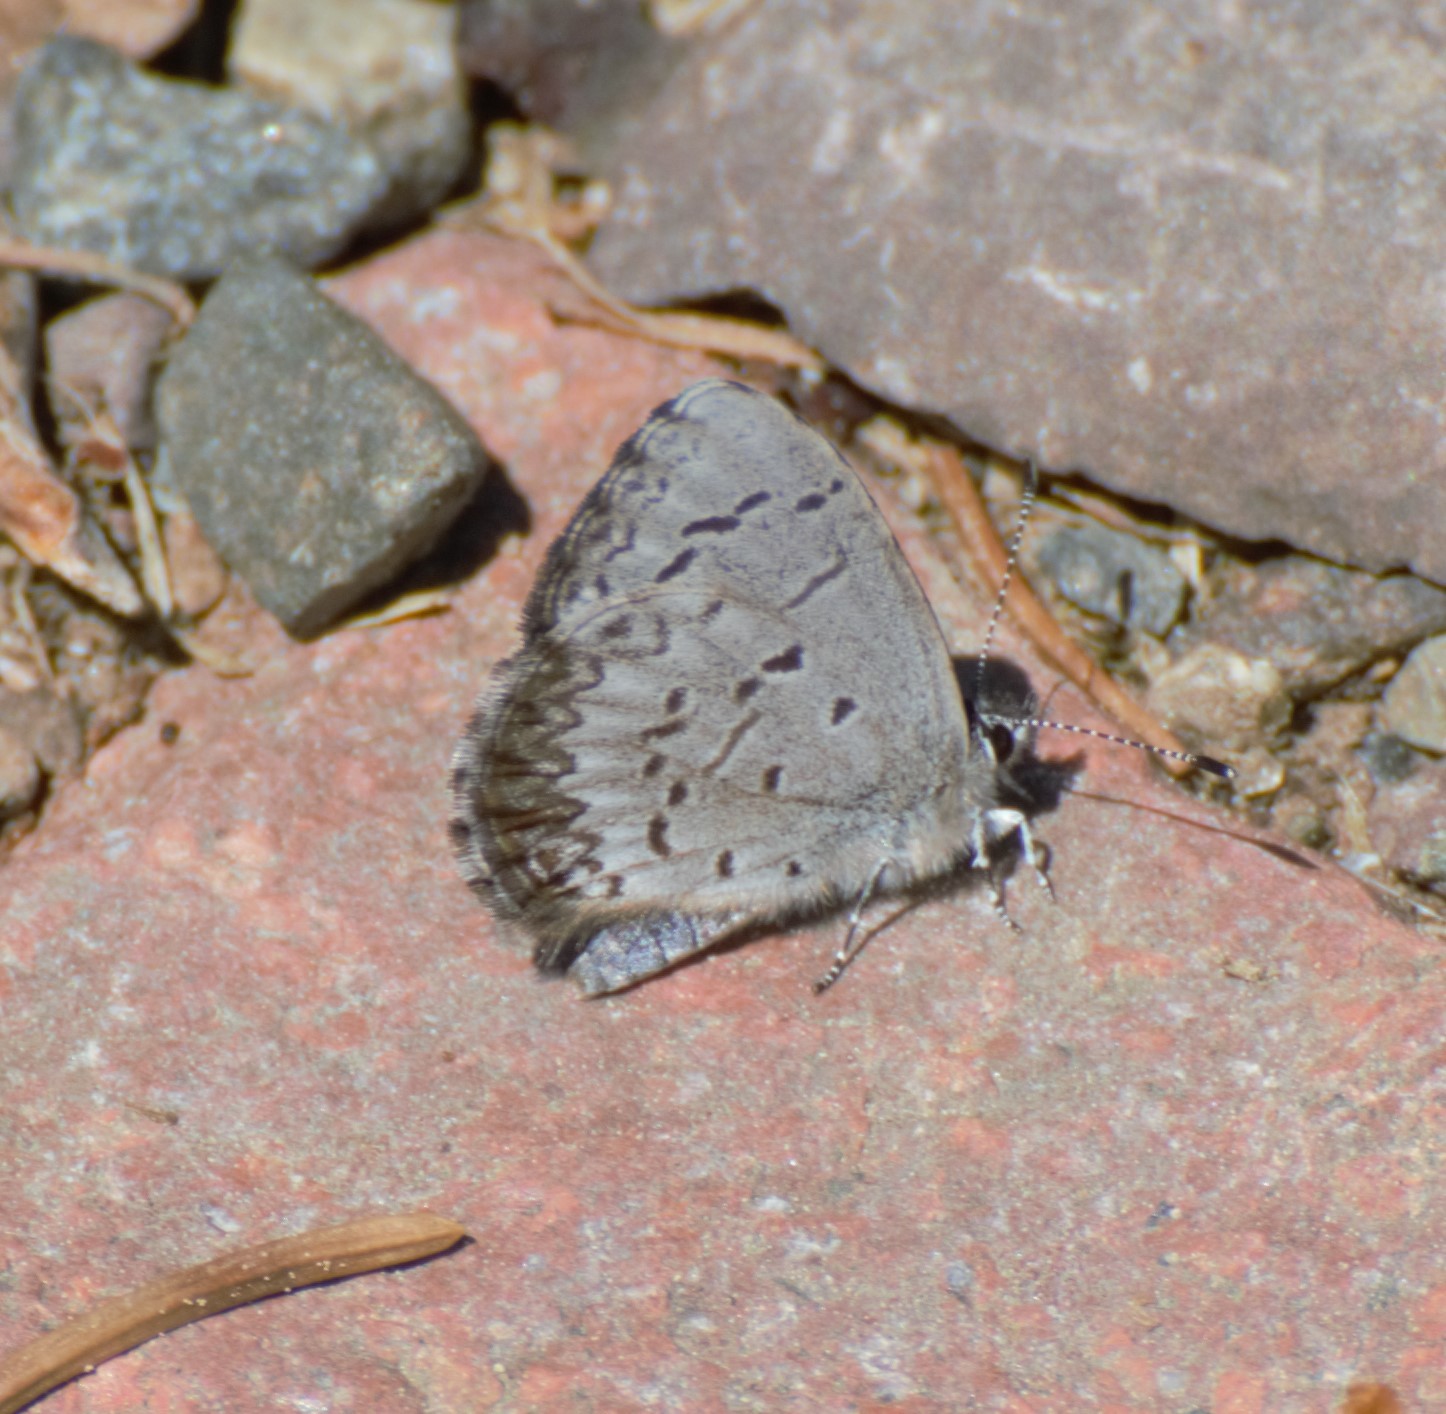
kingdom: Animalia
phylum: Arthropoda
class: Insecta
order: Lepidoptera
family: Lycaenidae
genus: Celastrina
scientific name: Celastrina lucia
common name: Lucia azure
